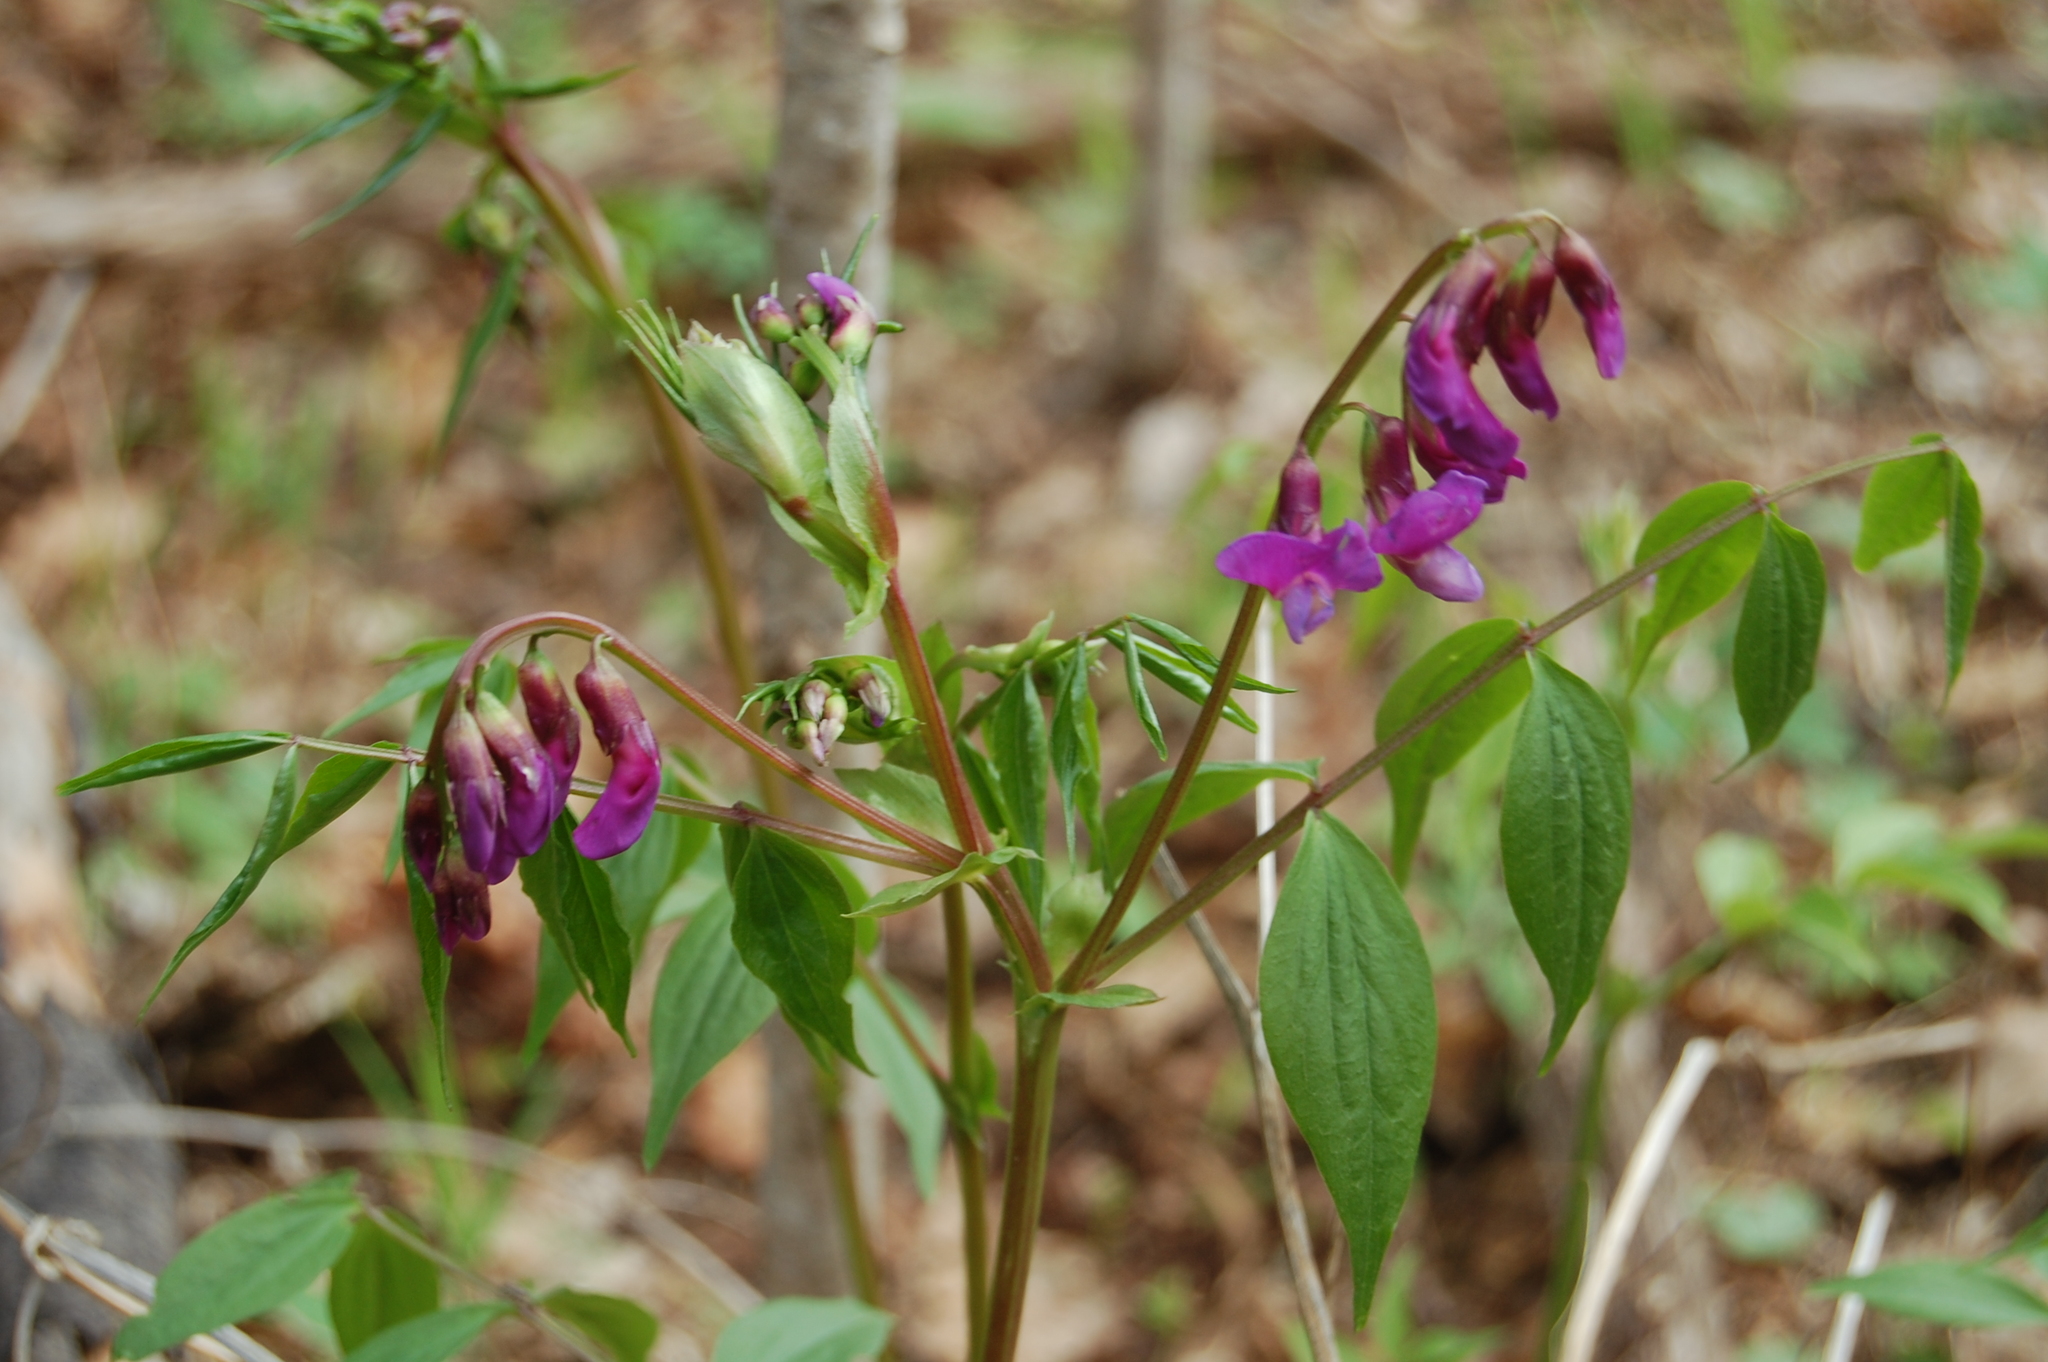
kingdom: Plantae
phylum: Tracheophyta
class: Magnoliopsida
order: Fabales
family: Fabaceae
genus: Lathyrus
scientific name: Lathyrus vernus
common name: Spring pea
